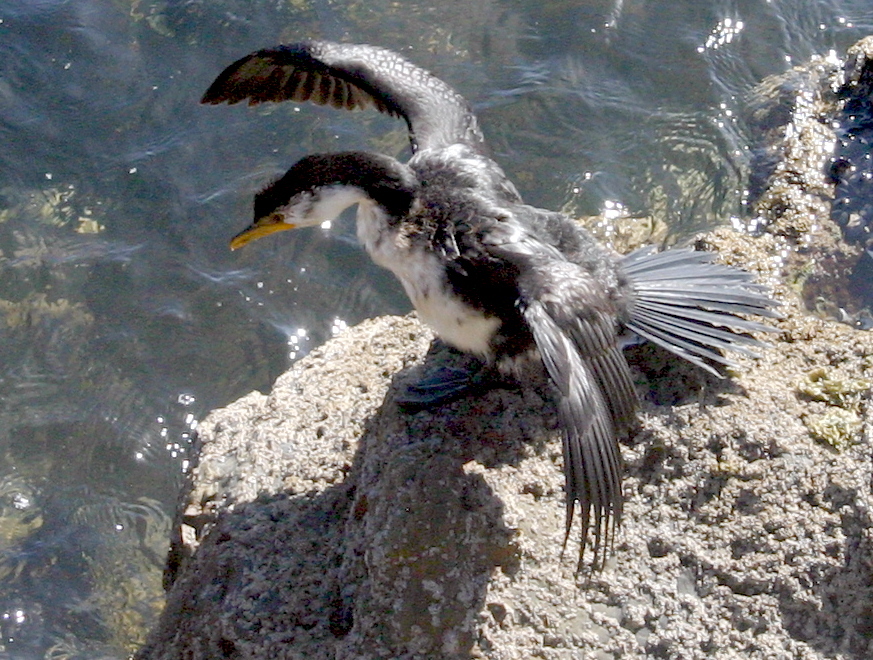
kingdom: Animalia
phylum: Chordata
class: Aves
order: Suliformes
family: Phalacrocoracidae
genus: Microcarbo
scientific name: Microcarbo melanoleucos
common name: Little pied cormorant
